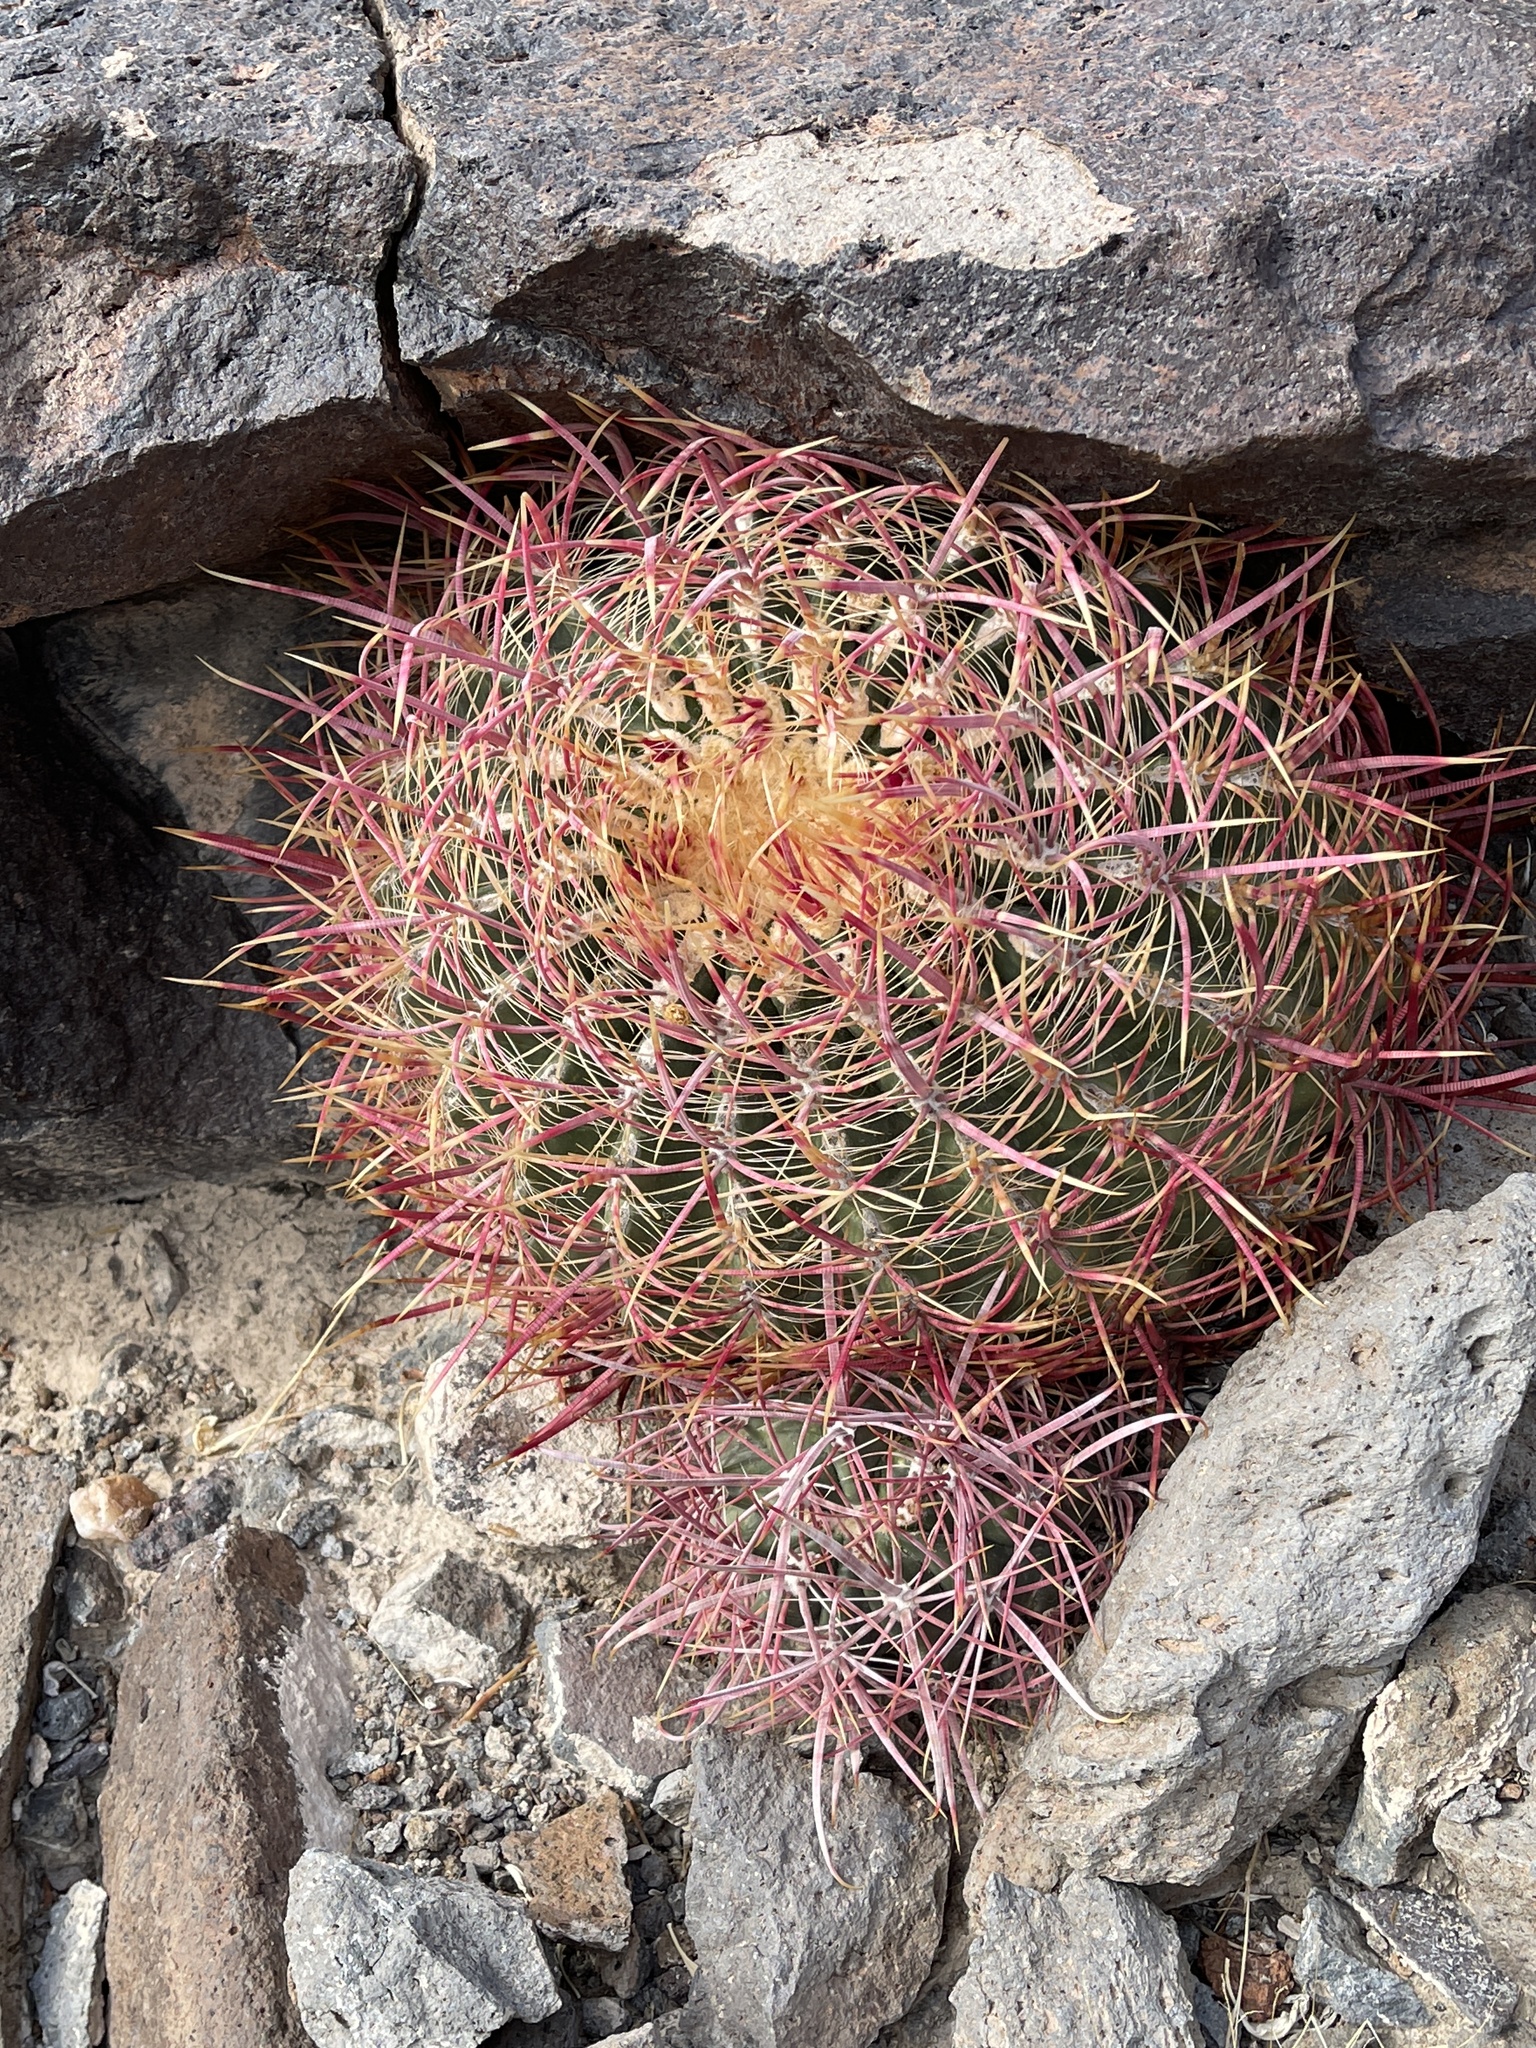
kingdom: Plantae
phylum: Tracheophyta
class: Magnoliopsida
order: Caryophyllales
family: Cactaceae
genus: Ferocactus
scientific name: Ferocactus cylindraceus
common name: California barrel cactus
